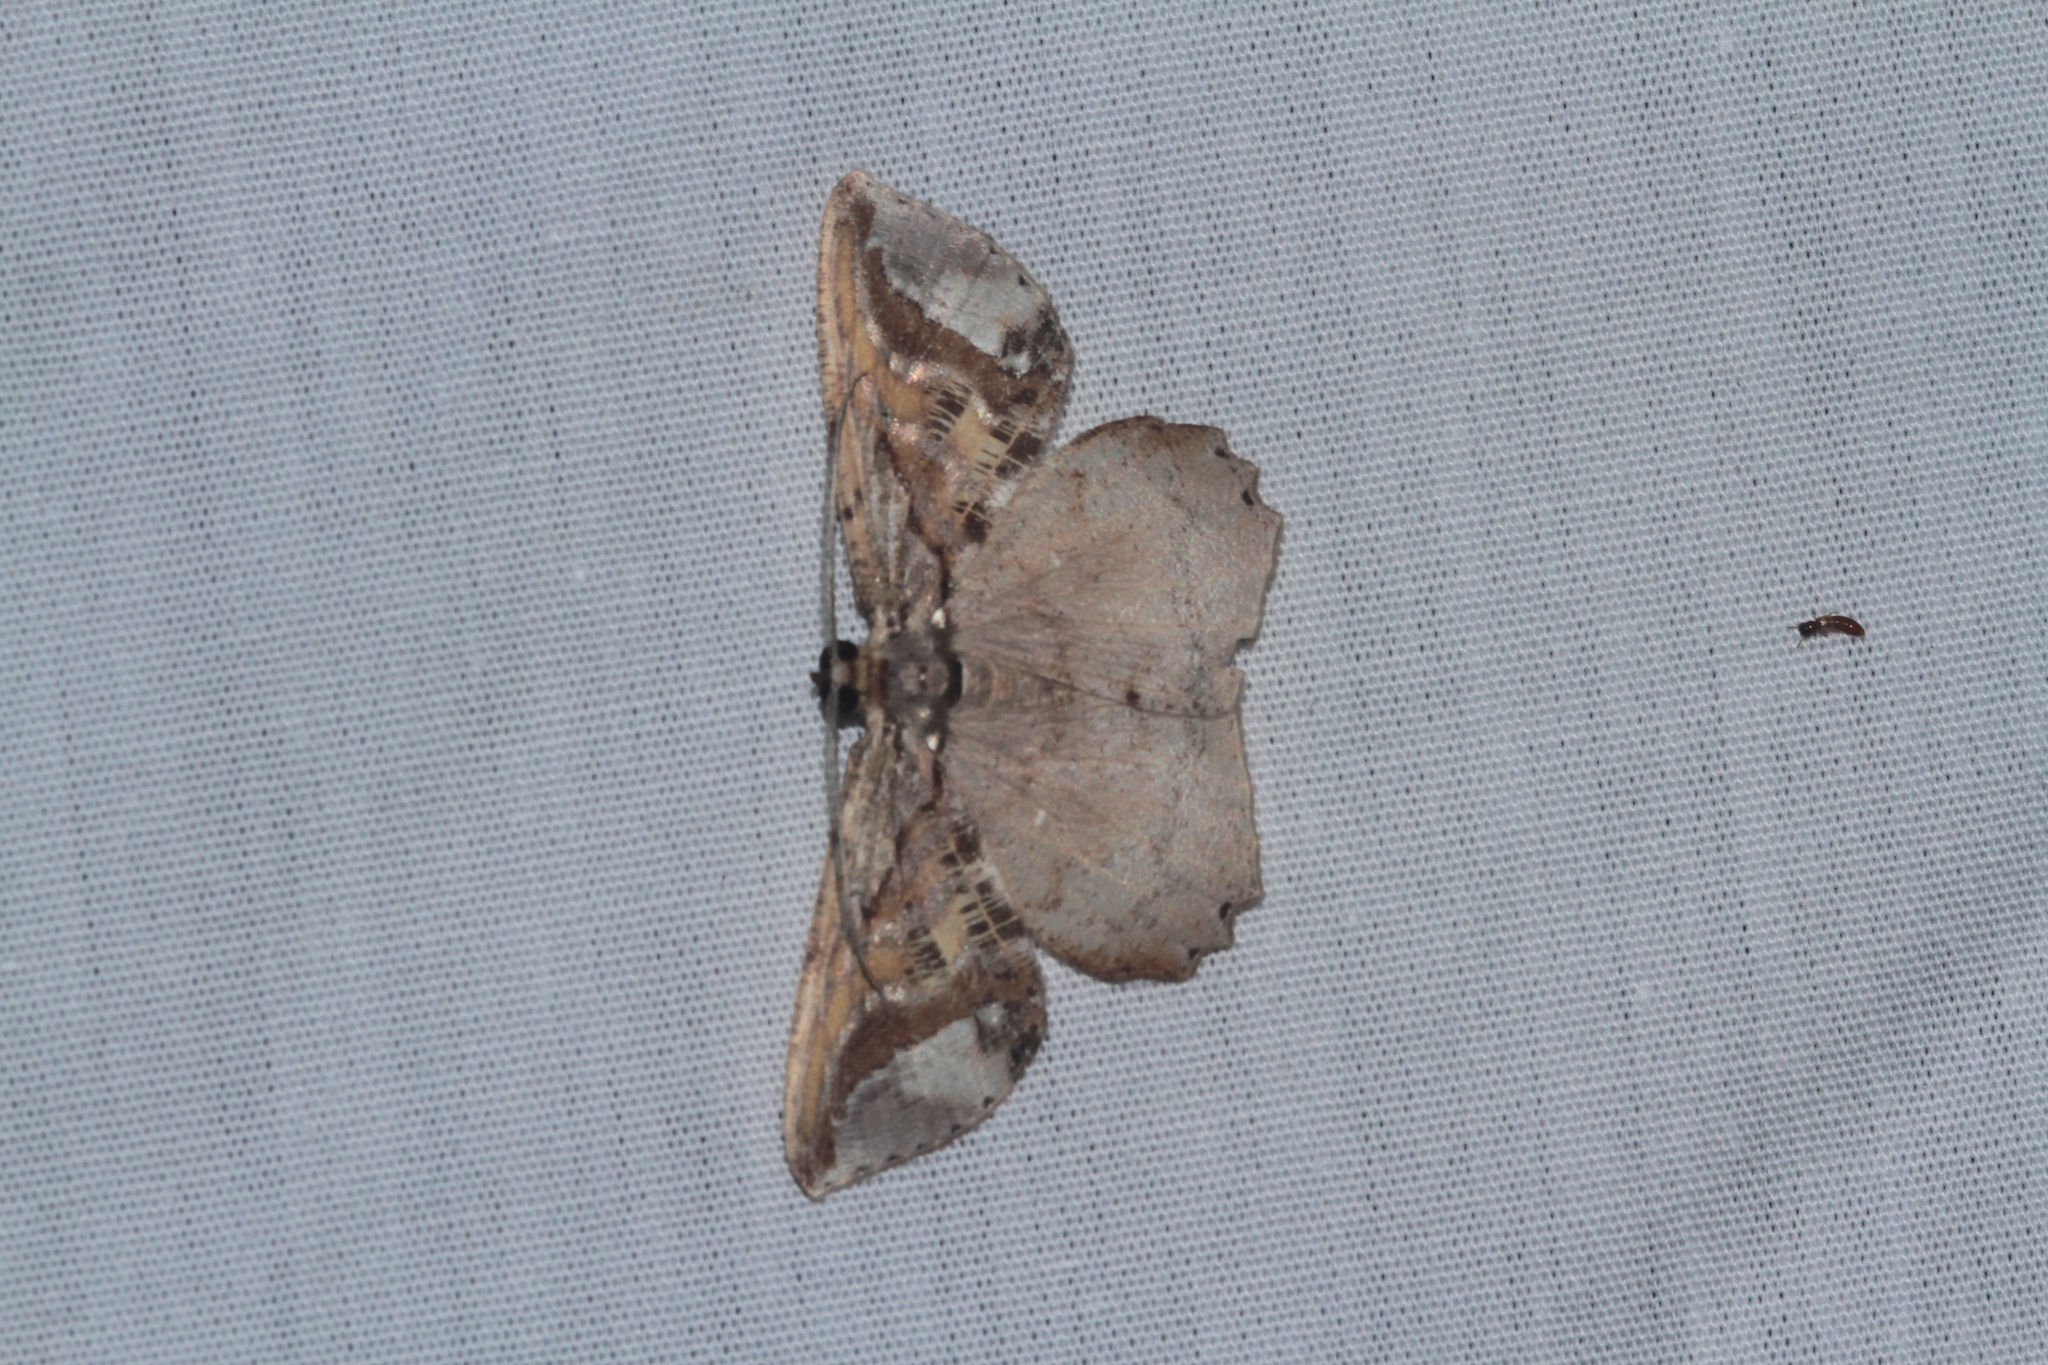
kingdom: Animalia
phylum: Arthropoda
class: Insecta
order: Lepidoptera
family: Geometridae
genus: Thysanopyga
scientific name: Thysanopyga
